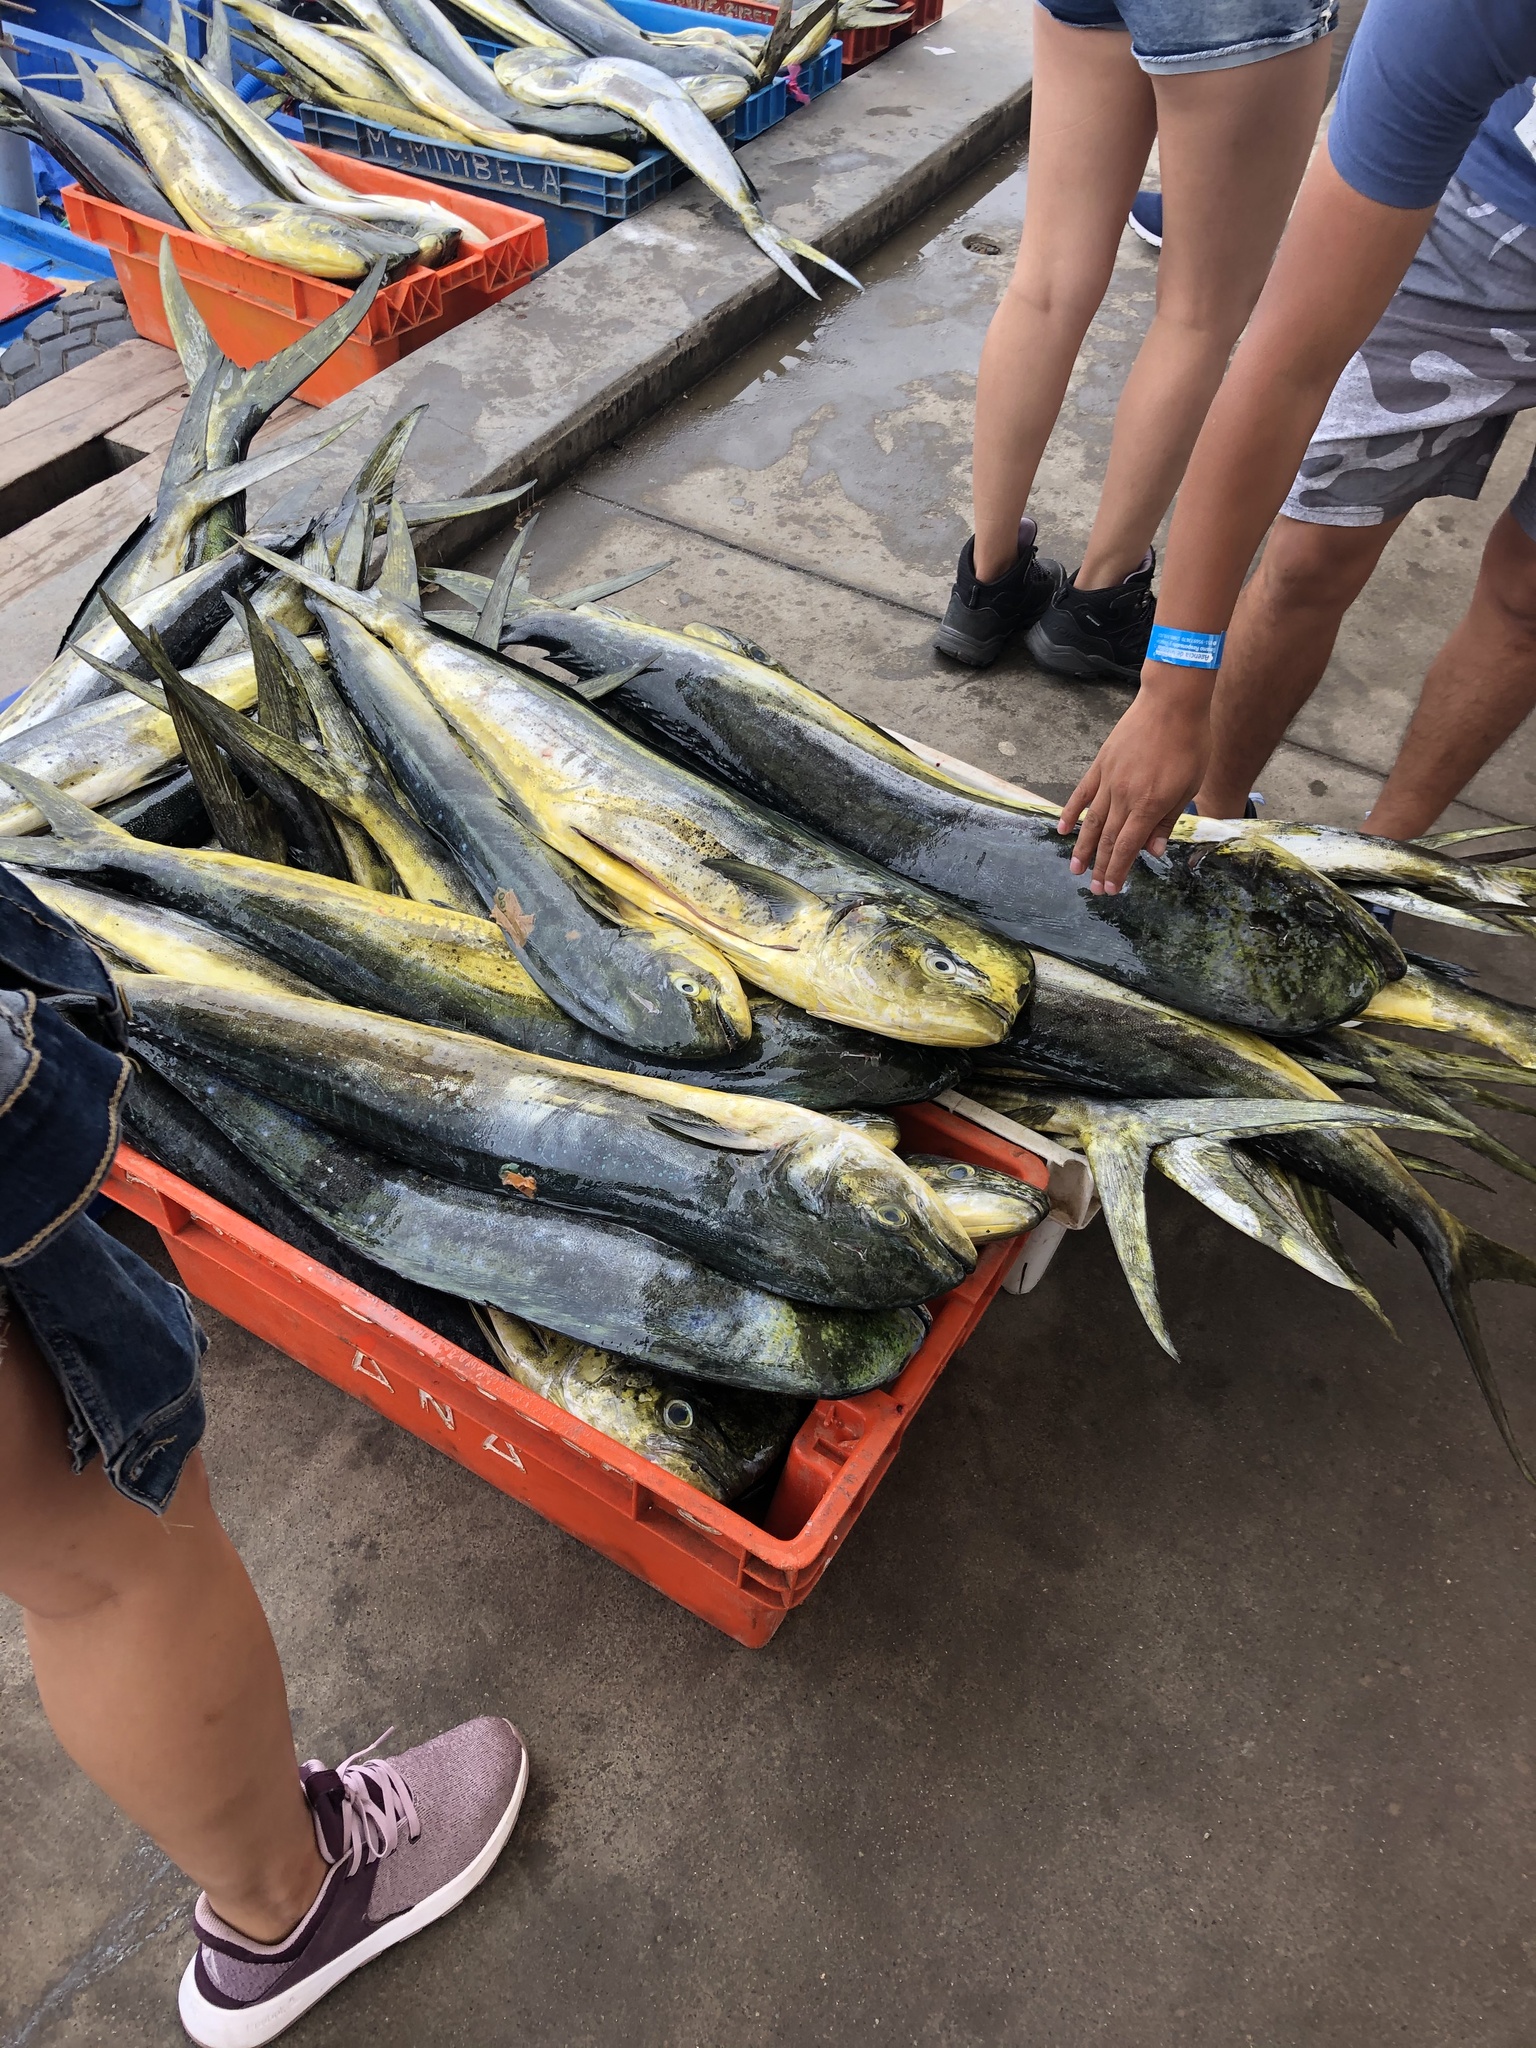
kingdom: Animalia
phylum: Chordata
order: Perciformes
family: Coryphaenidae
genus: Coryphaena
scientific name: Coryphaena hippurus
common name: Dolphin
